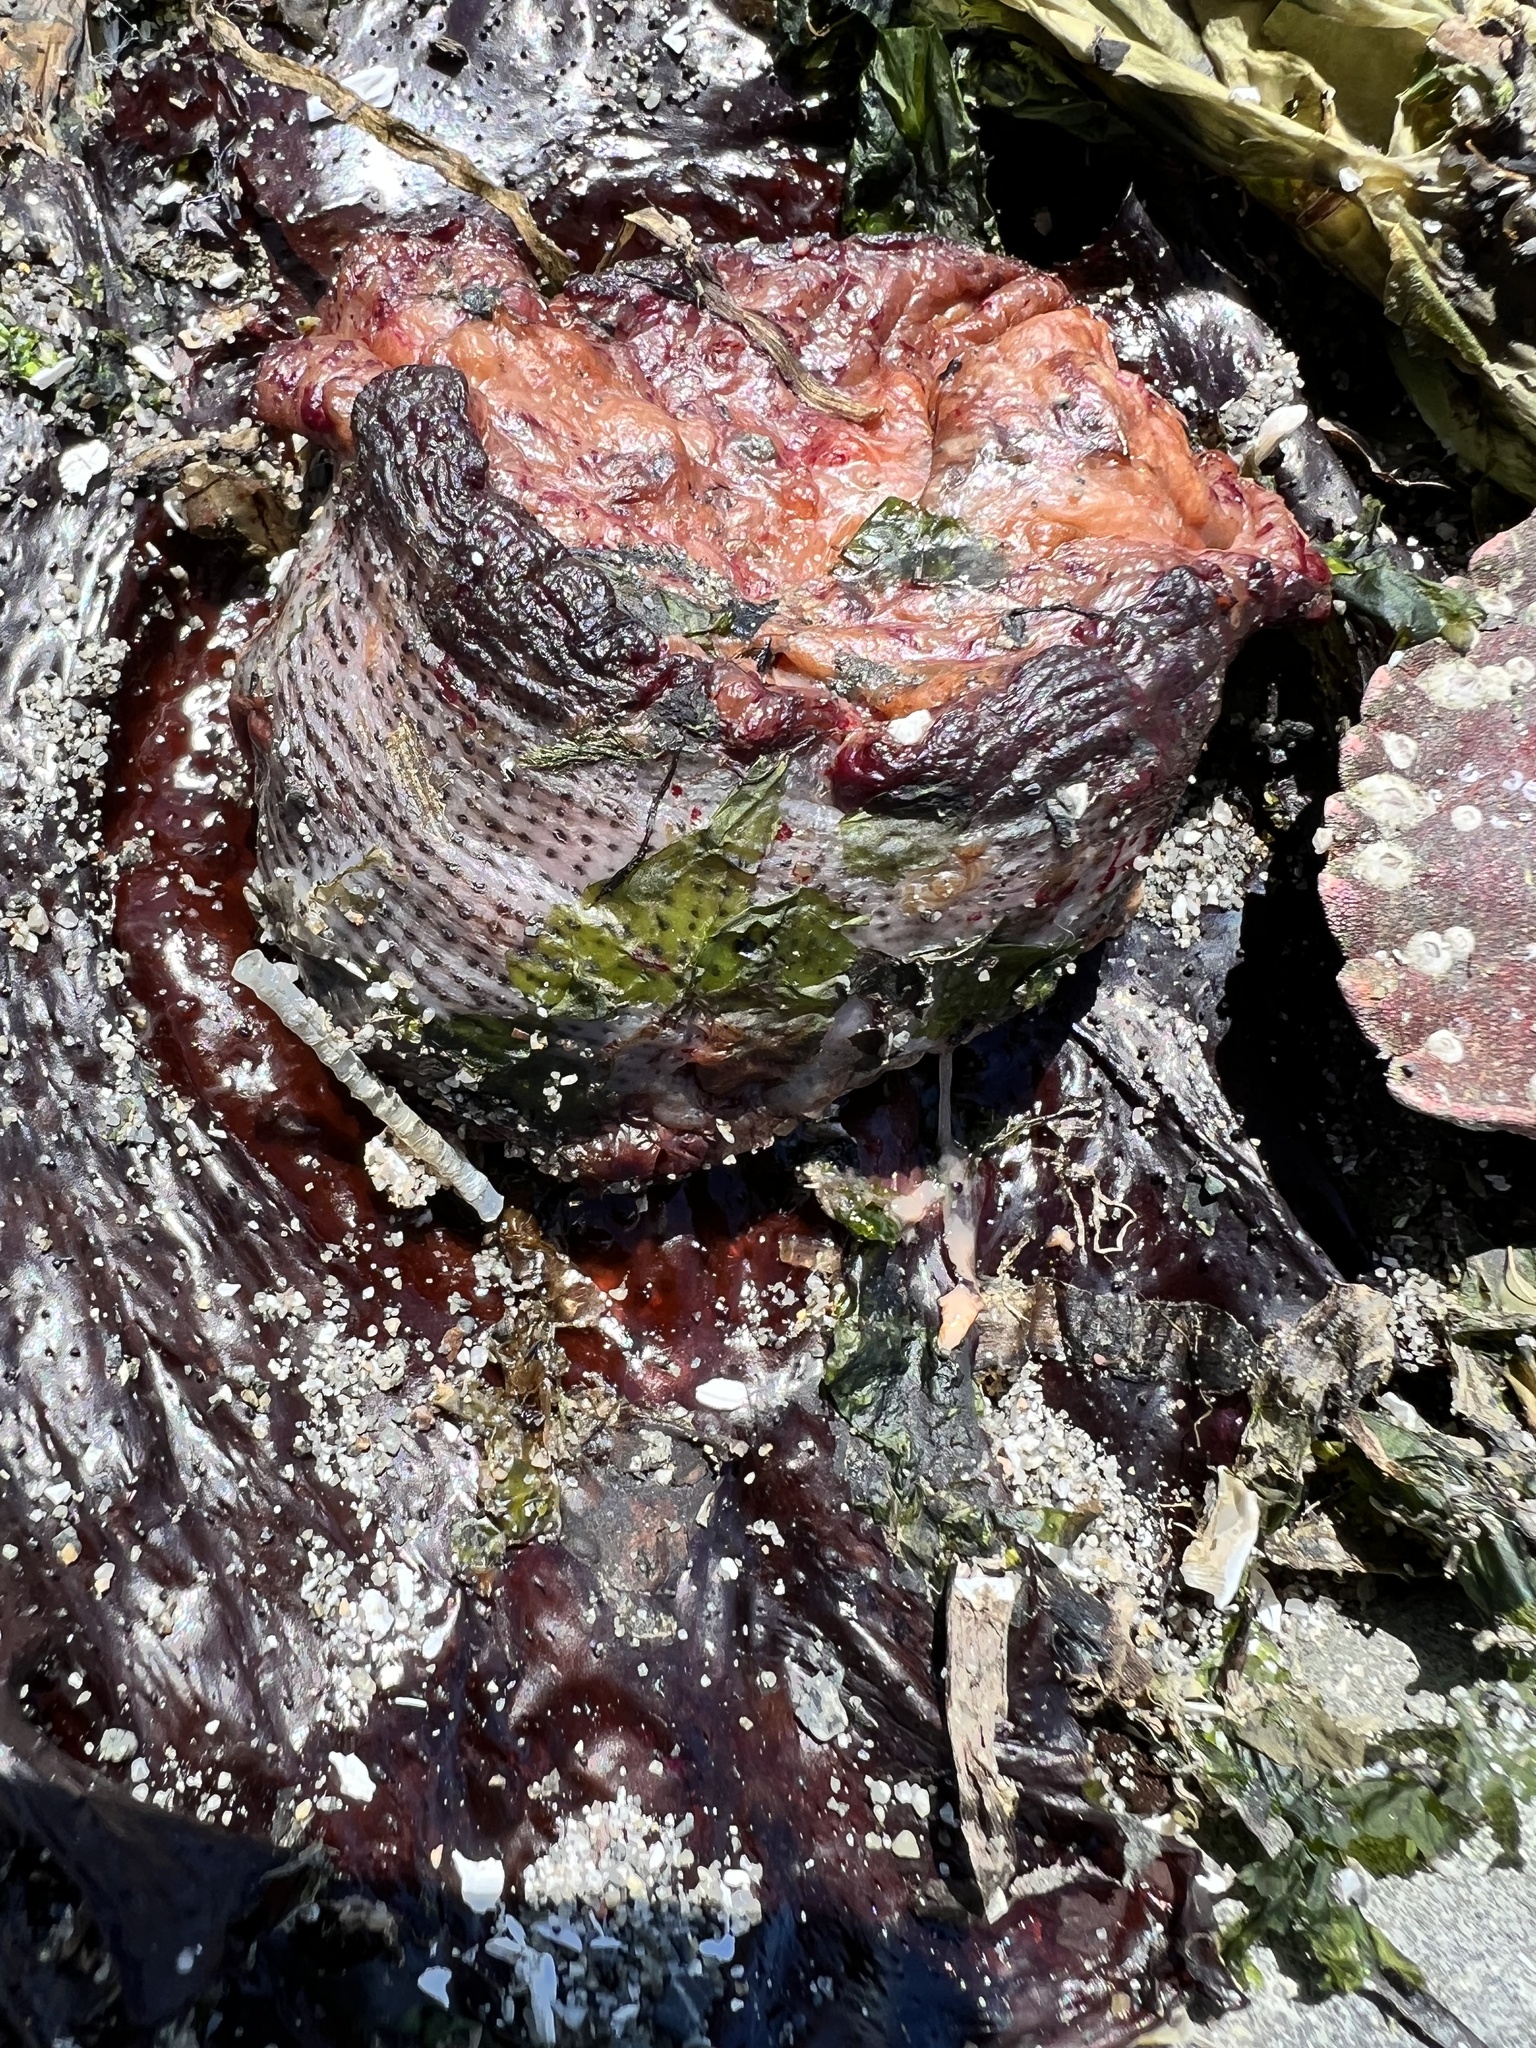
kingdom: Animalia
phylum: Cnidaria
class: Anthozoa
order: Actiniaria
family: Actiniidae
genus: Urticina
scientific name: Urticina grebelnyi
